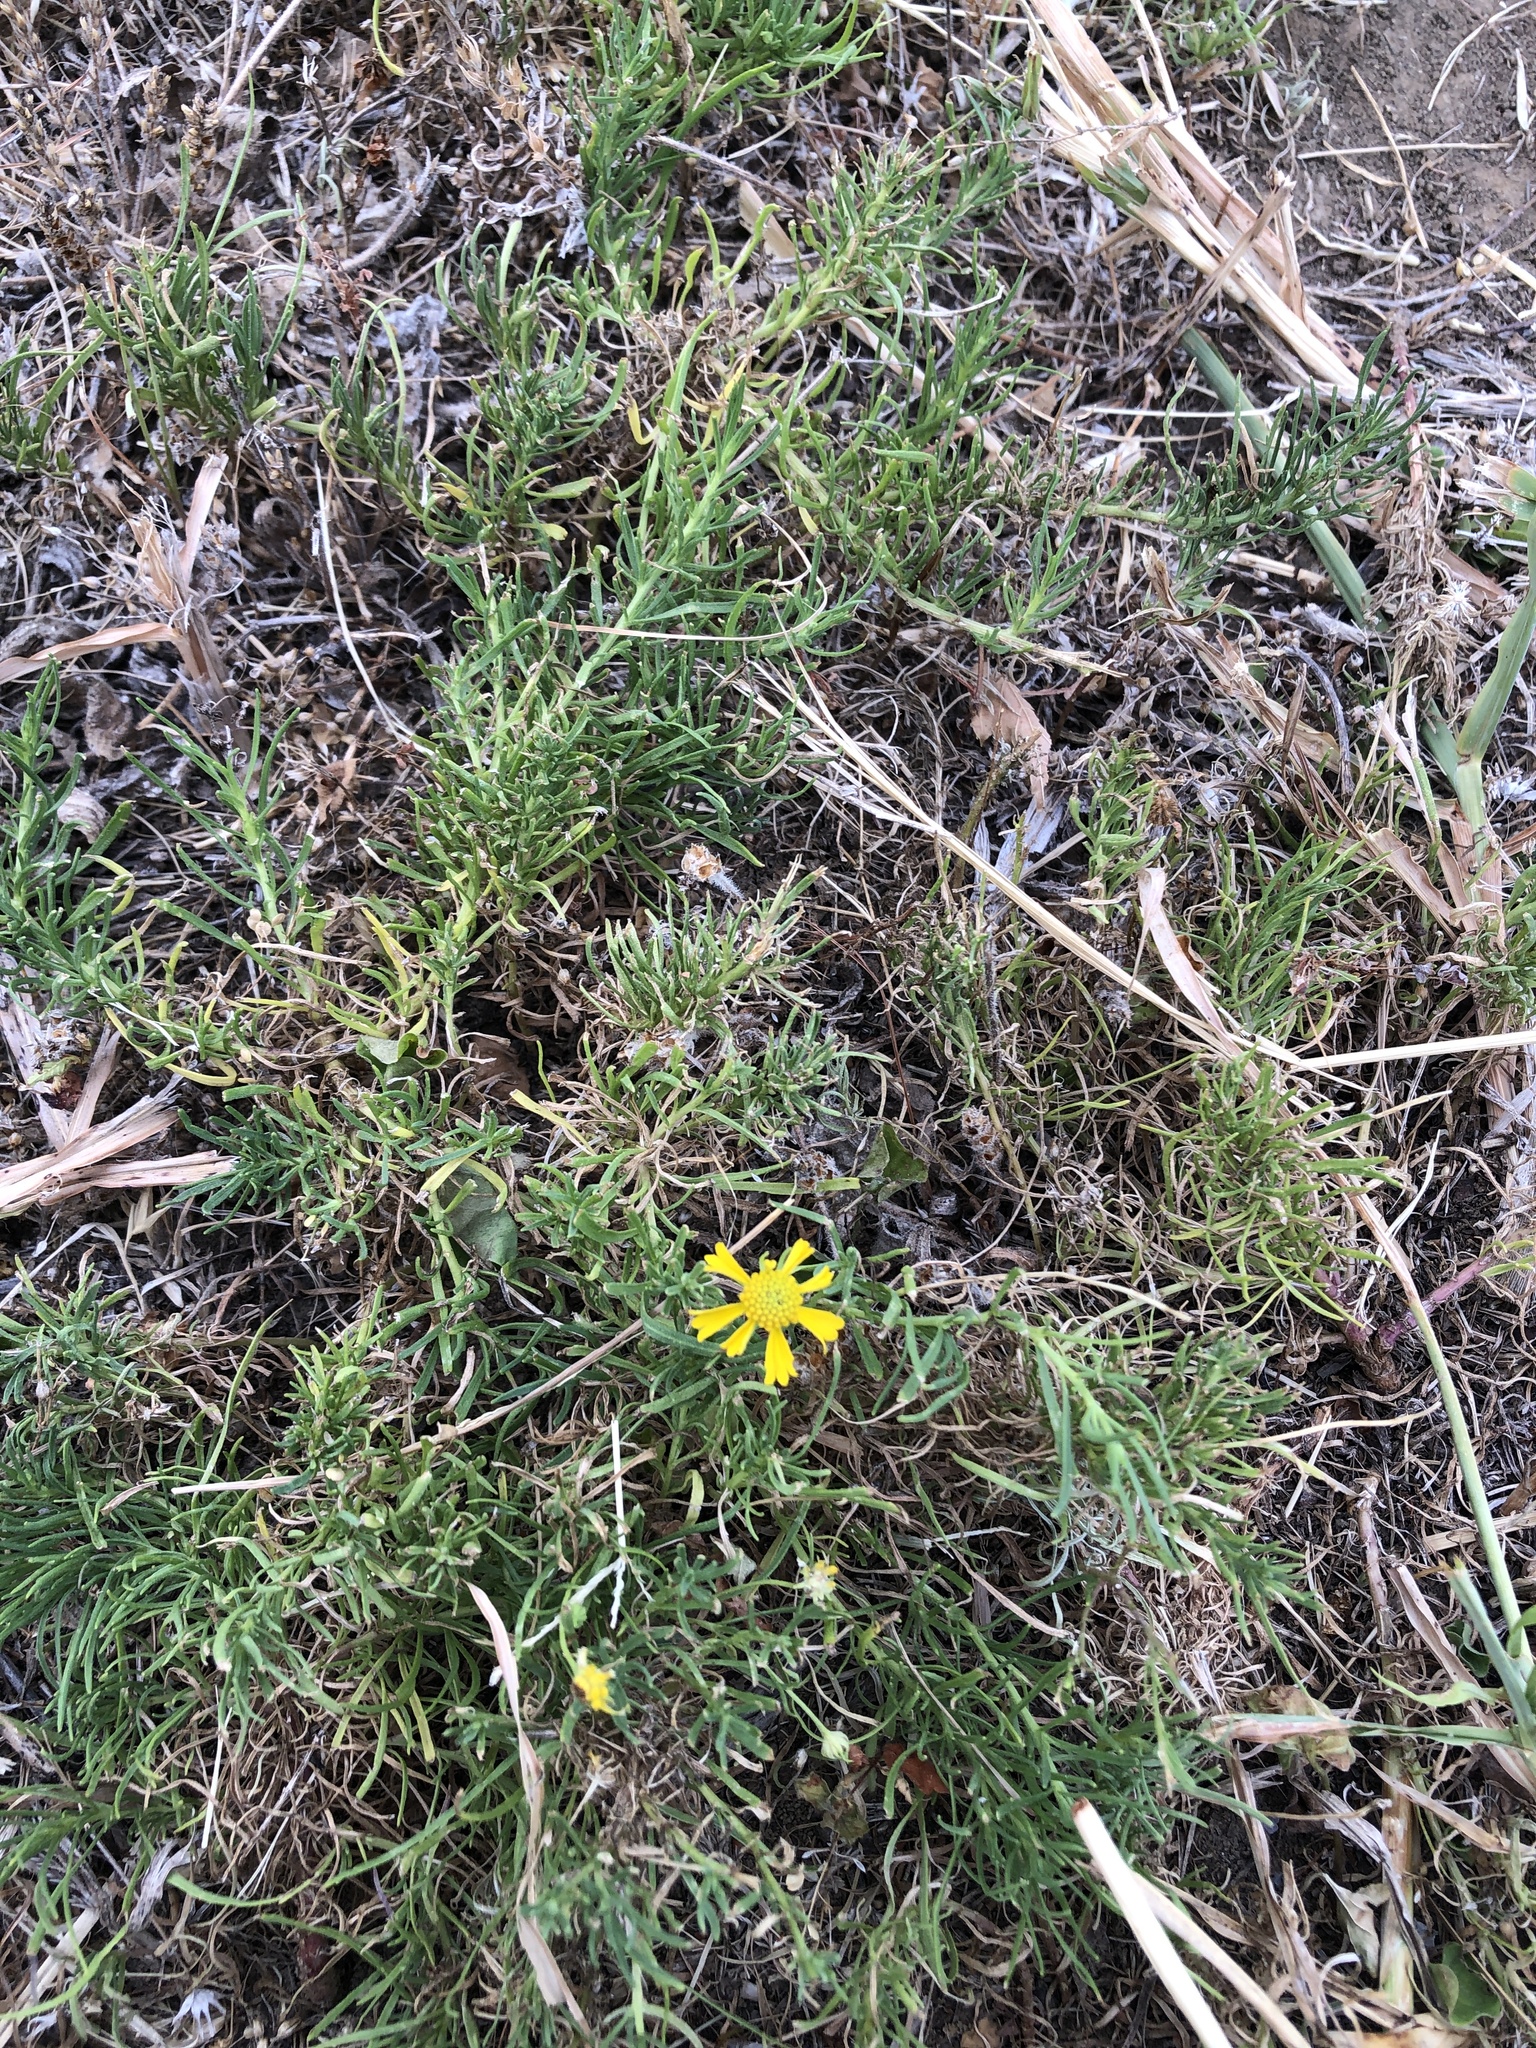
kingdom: Plantae
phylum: Tracheophyta
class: Magnoliopsida
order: Asterales
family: Asteraceae
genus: Helenium
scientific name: Helenium amarum
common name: Bitter sneezeweed
